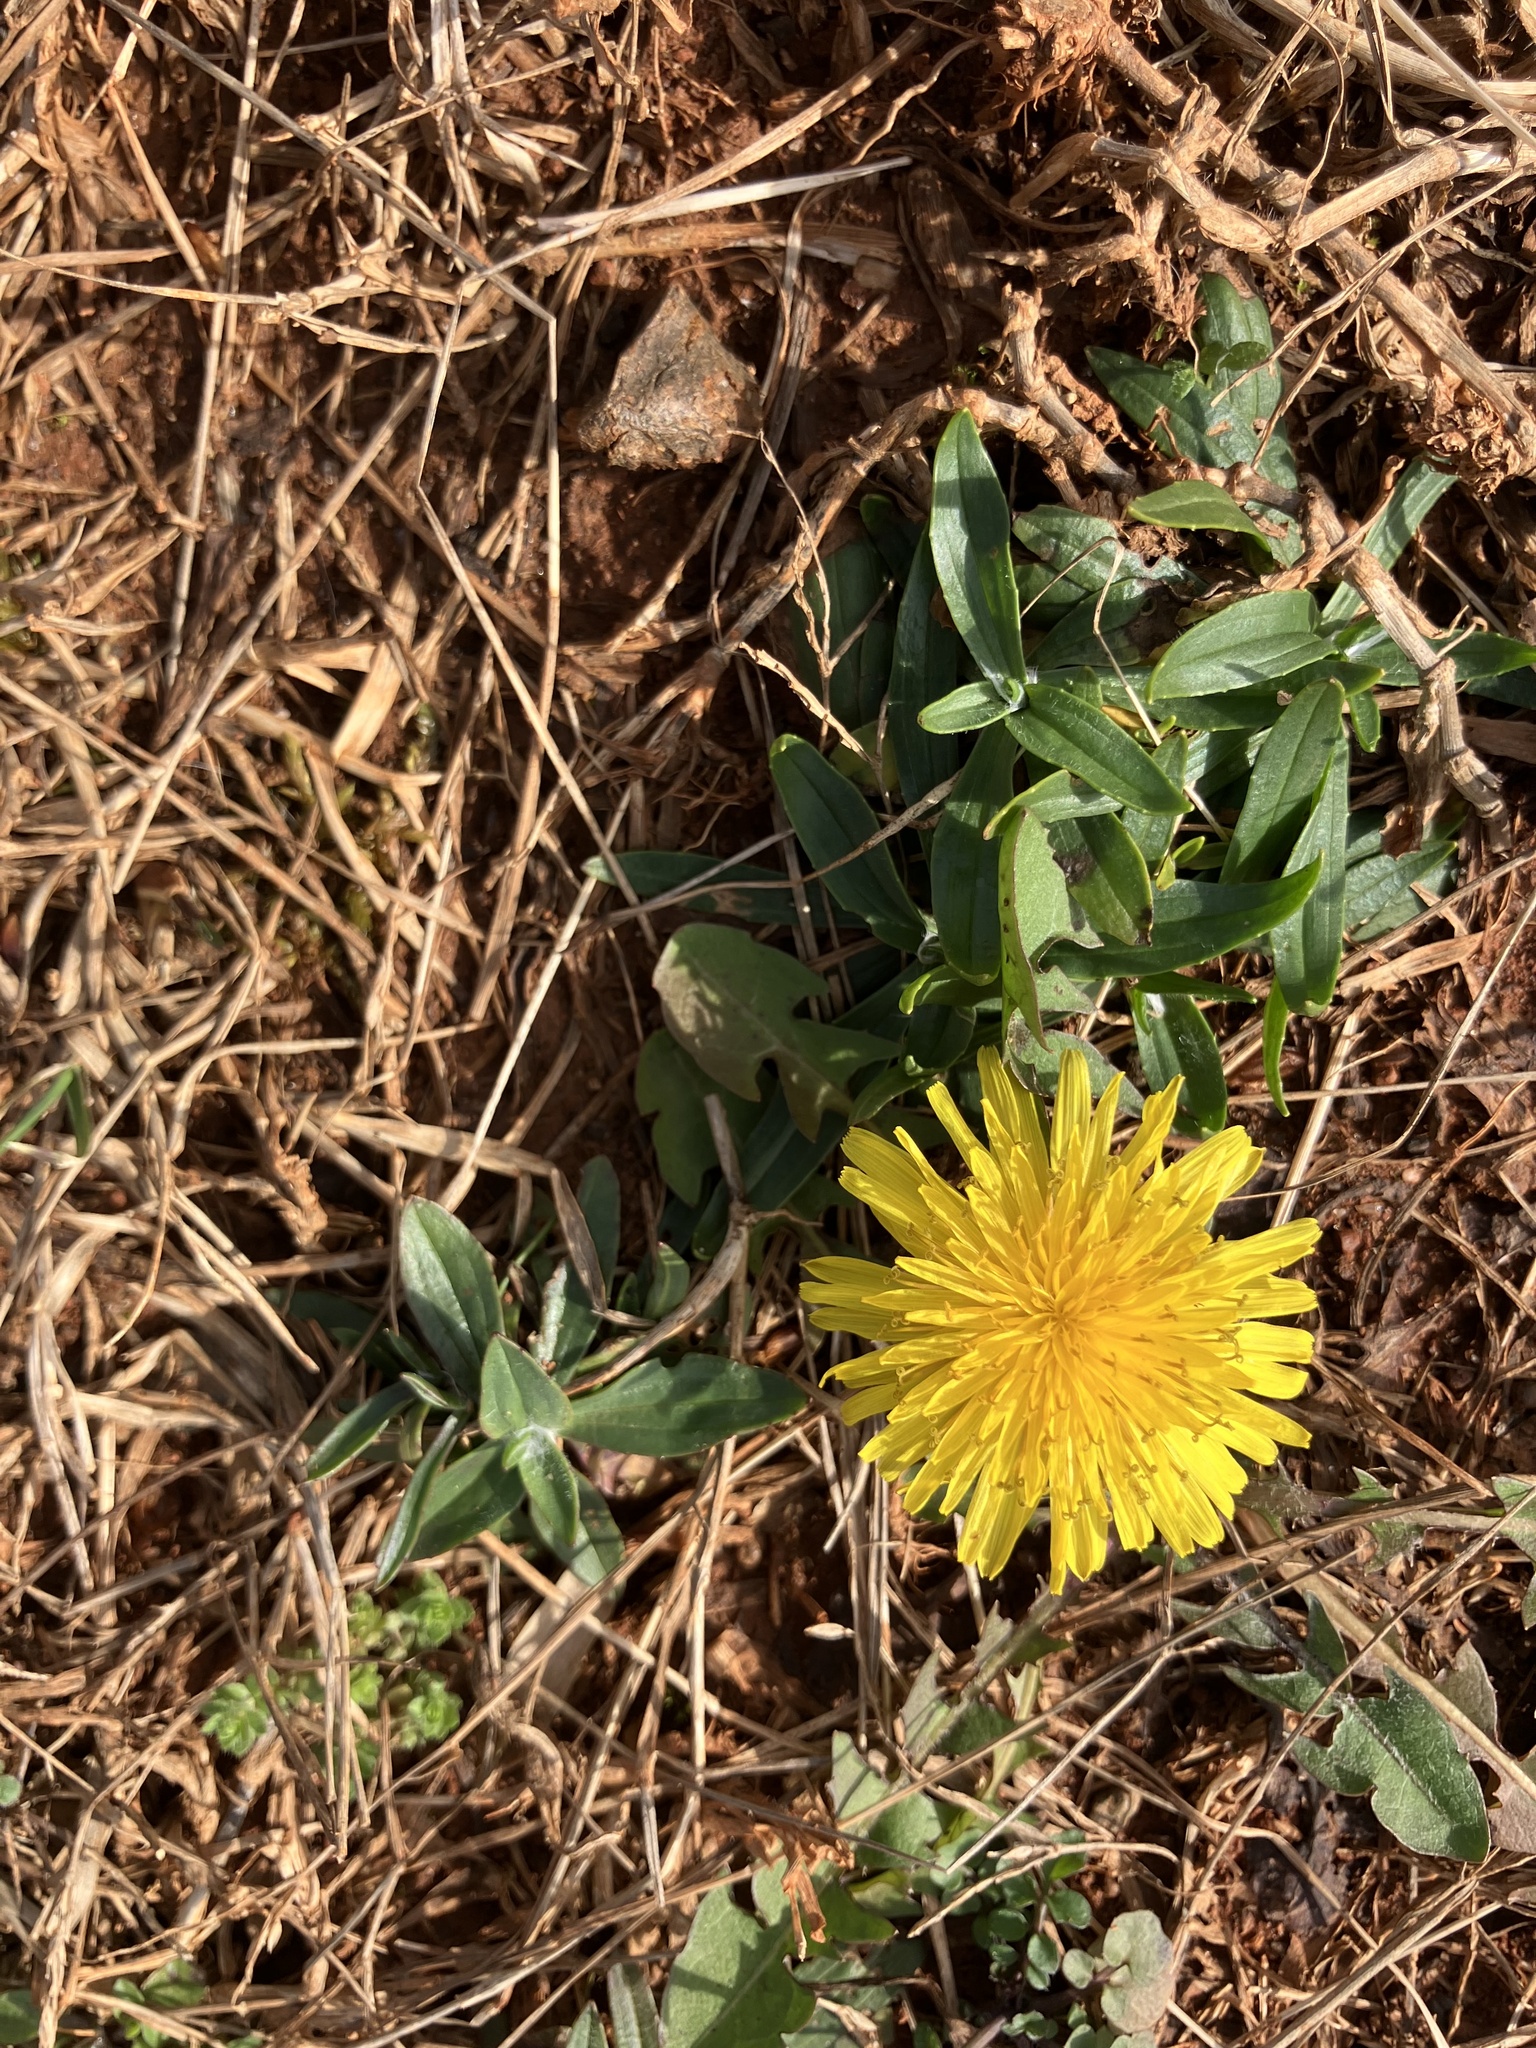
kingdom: Plantae
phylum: Tracheophyta
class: Magnoliopsida
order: Asterales
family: Asteraceae
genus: Taraxacum
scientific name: Taraxacum officinale
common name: Common dandelion
